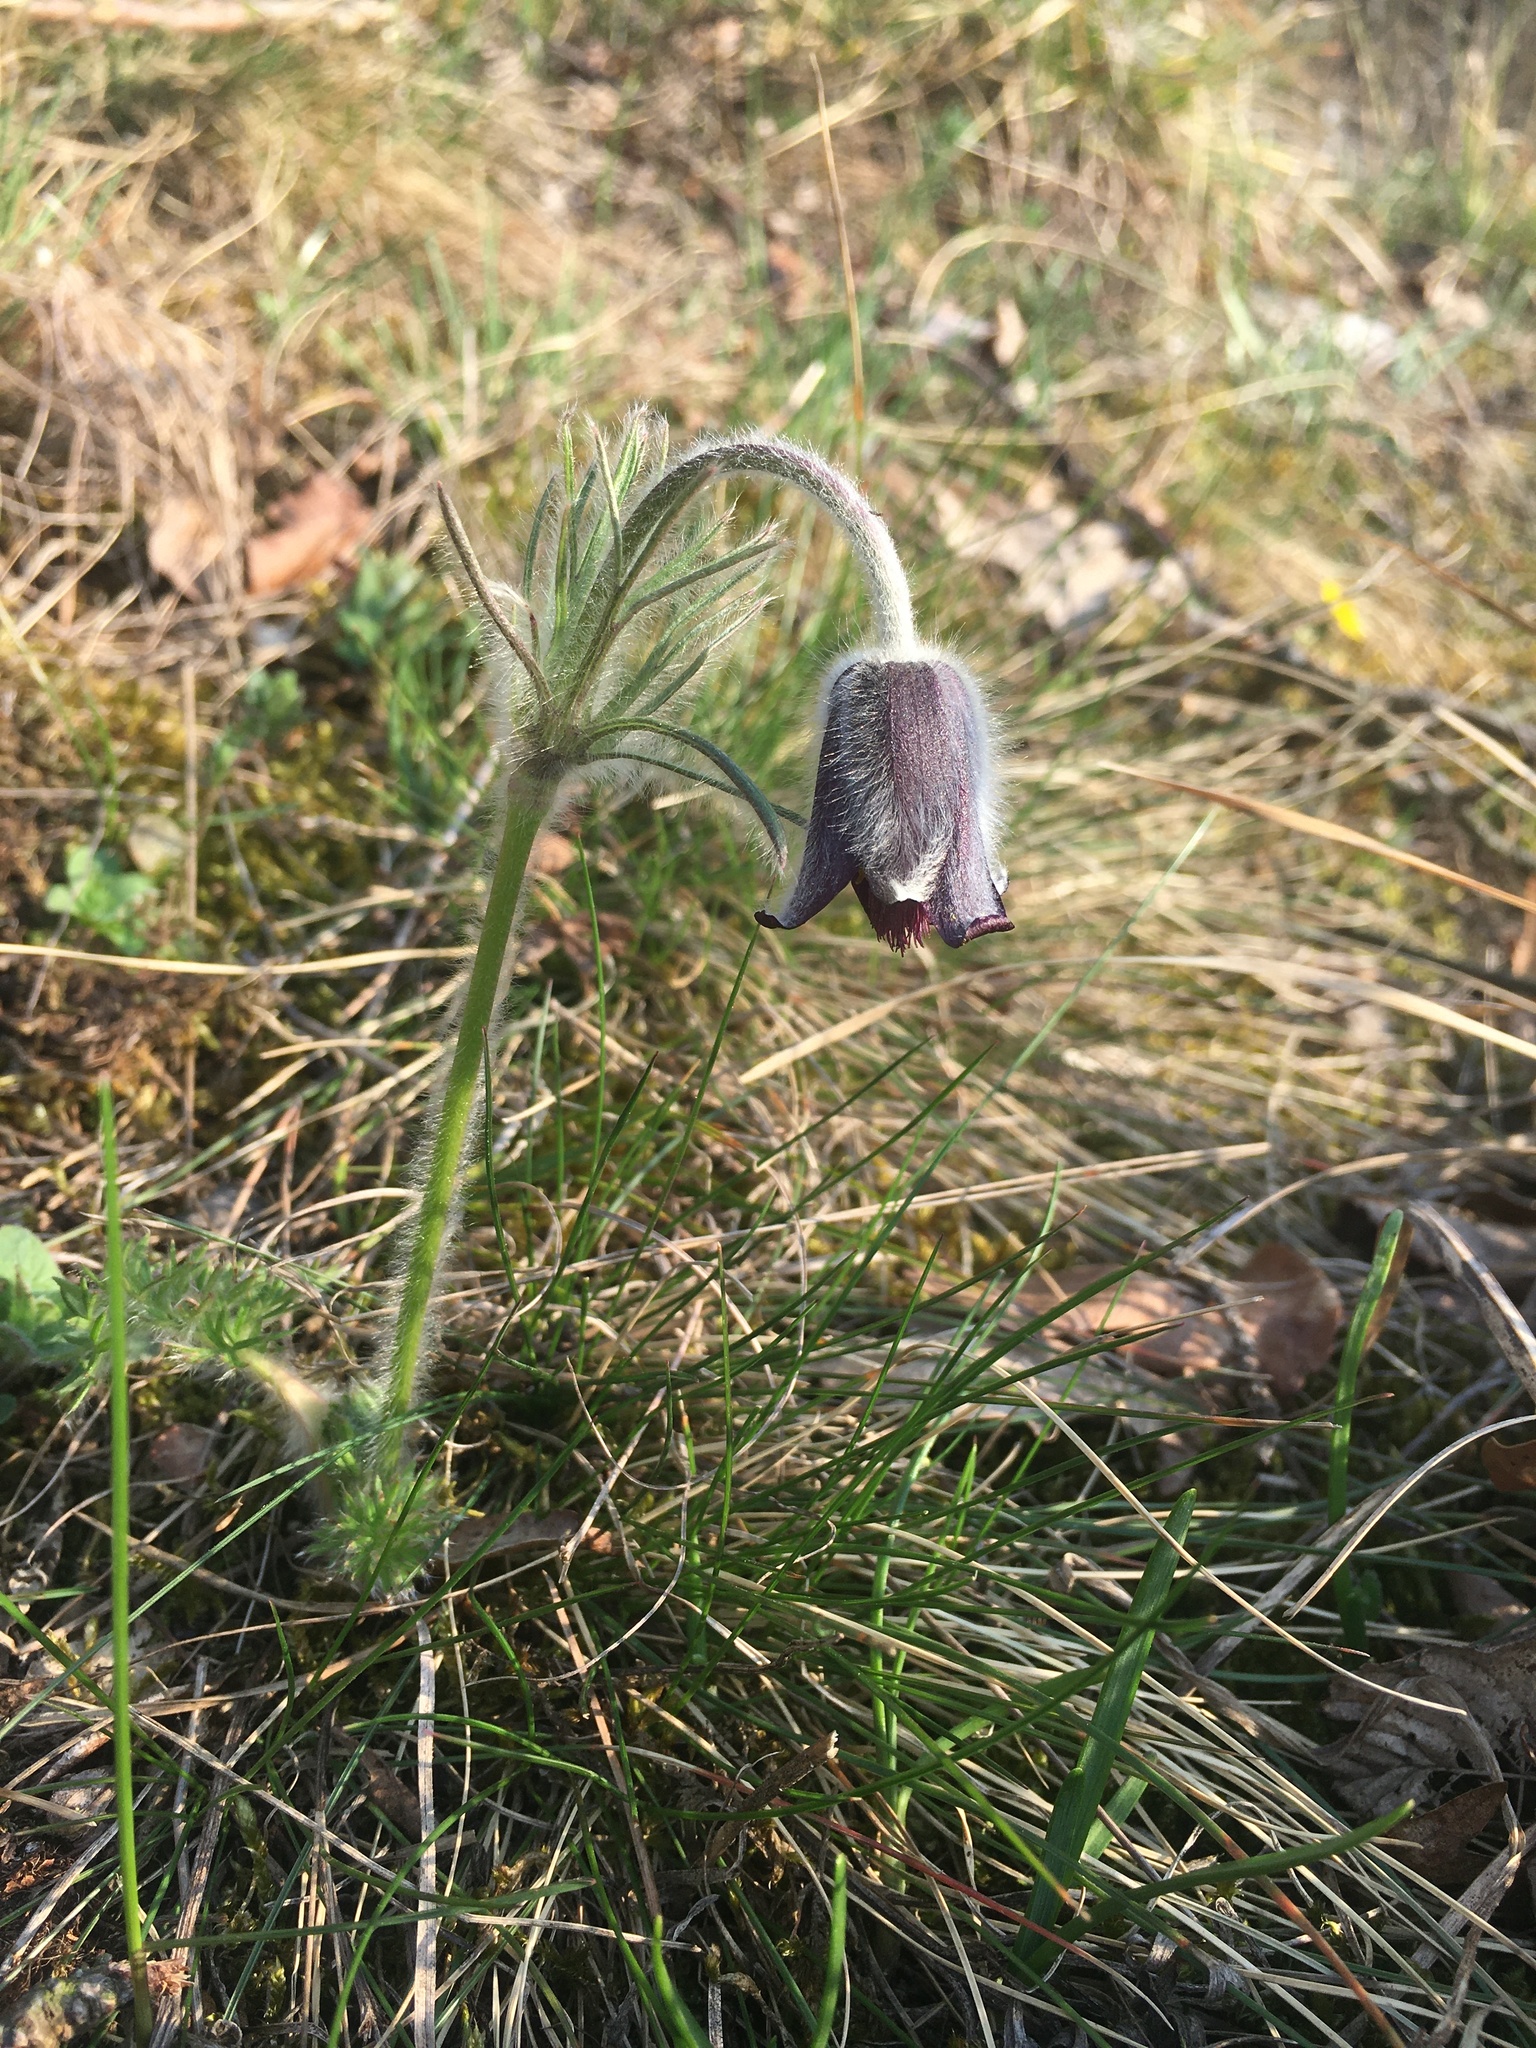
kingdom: Plantae
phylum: Tracheophyta
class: Magnoliopsida
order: Ranunculales
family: Ranunculaceae
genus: Pulsatilla
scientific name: Pulsatilla pratensis
